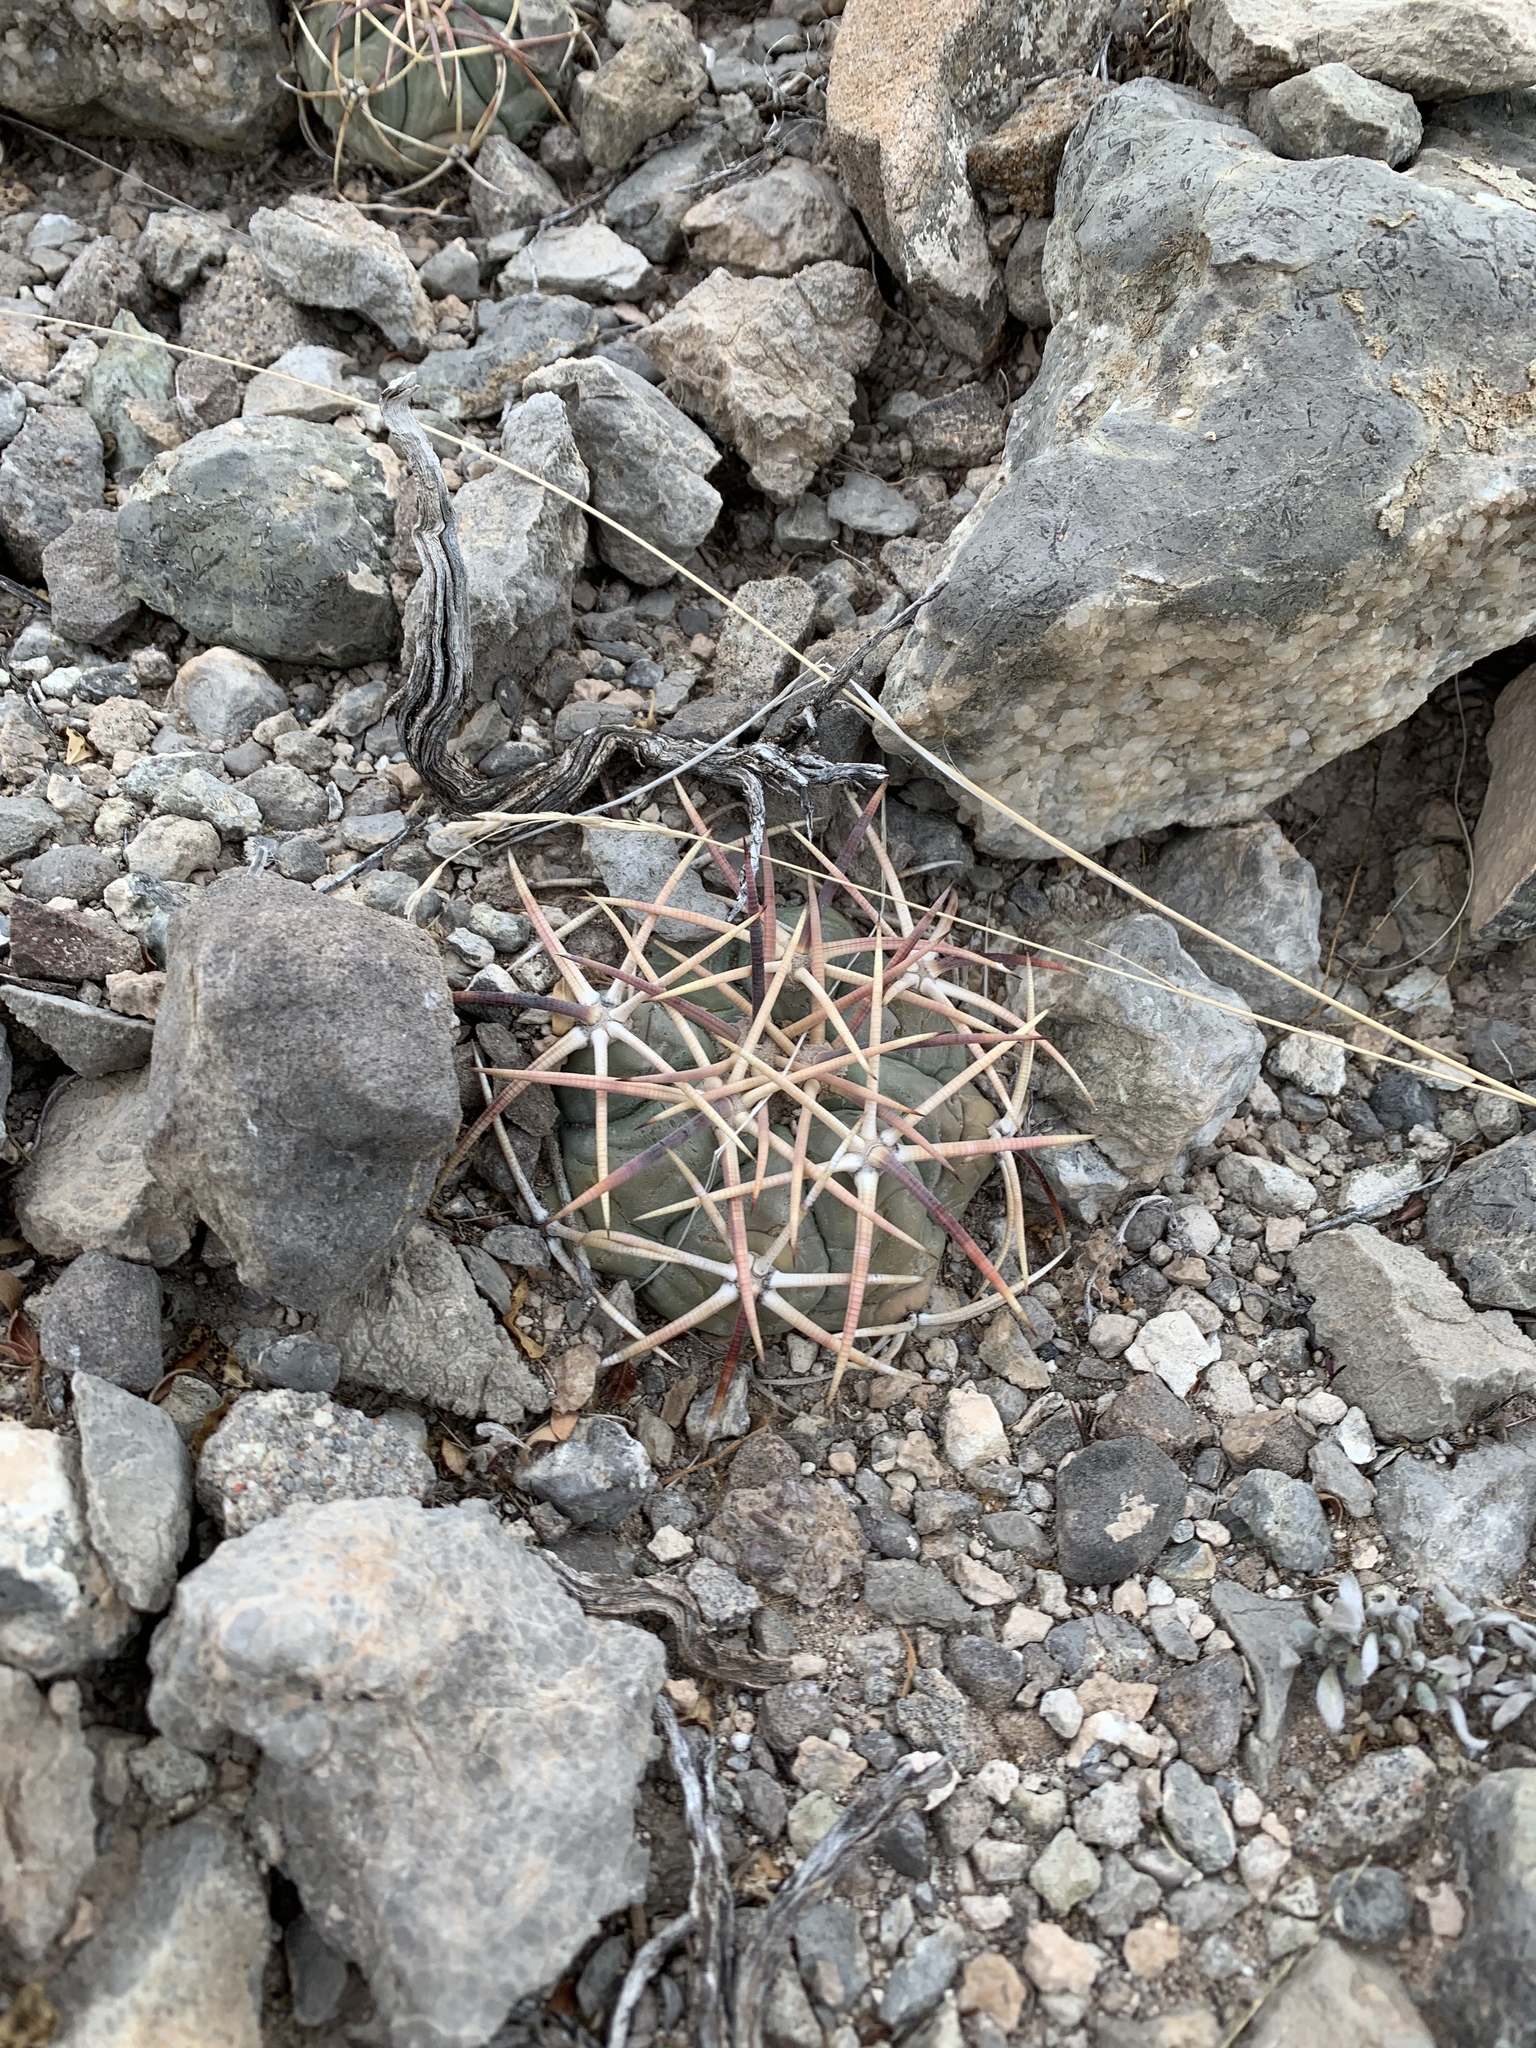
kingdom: Plantae
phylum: Tracheophyta
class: Magnoliopsida
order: Caryophyllales
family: Cactaceae
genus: Echinocactus
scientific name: Echinocactus horizonthalonius
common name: Devilshead
